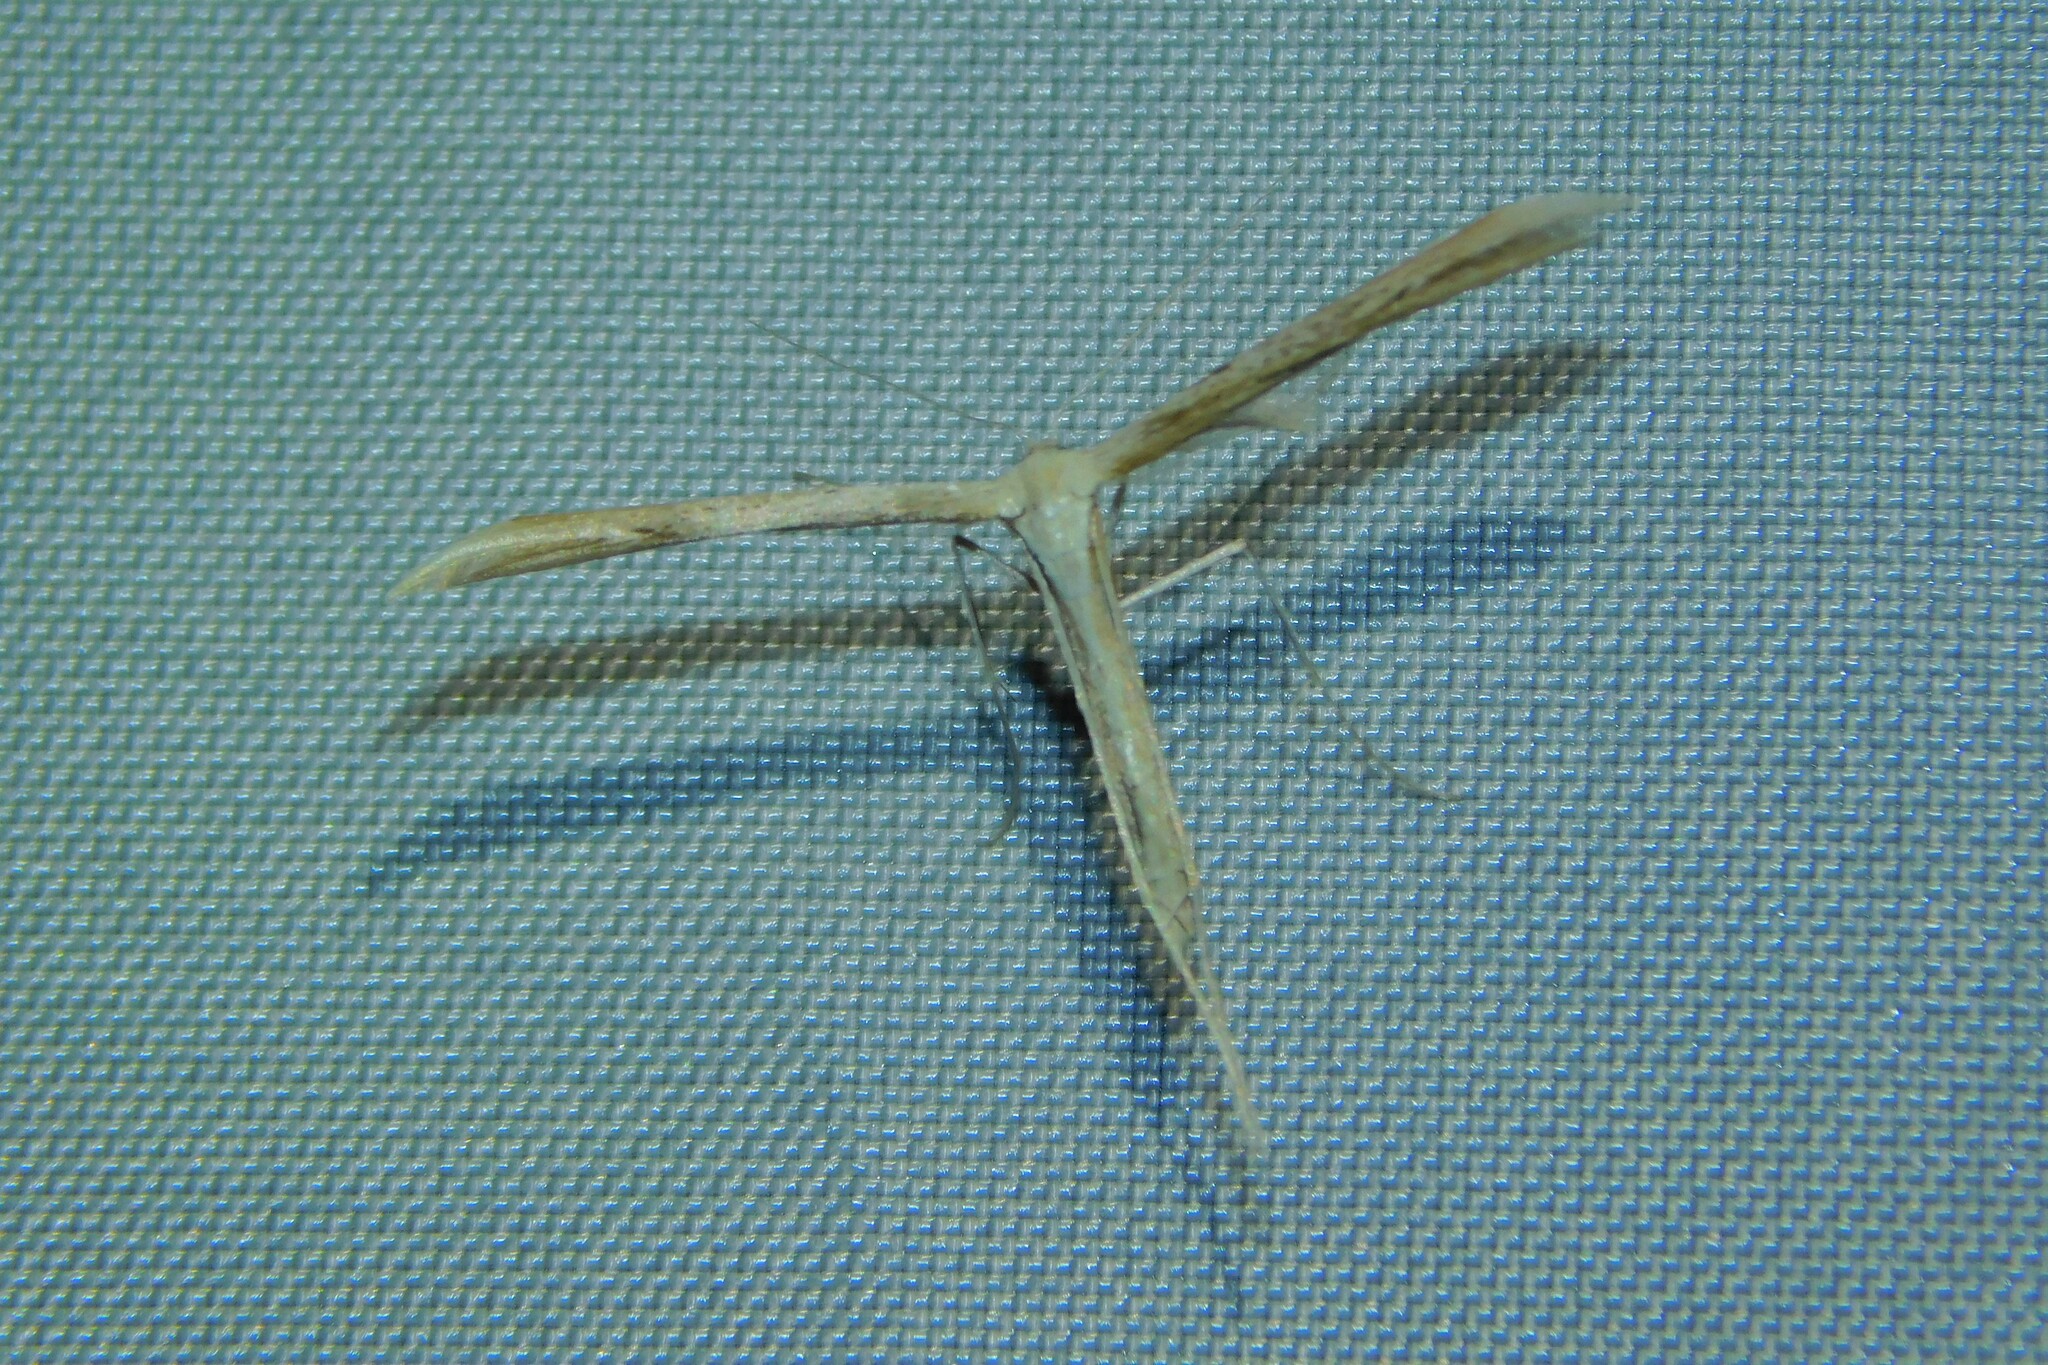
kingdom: Animalia
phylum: Arthropoda
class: Insecta
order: Lepidoptera
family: Pterophoridae
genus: Emmelina
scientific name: Emmelina monodactyla
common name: Common plume
